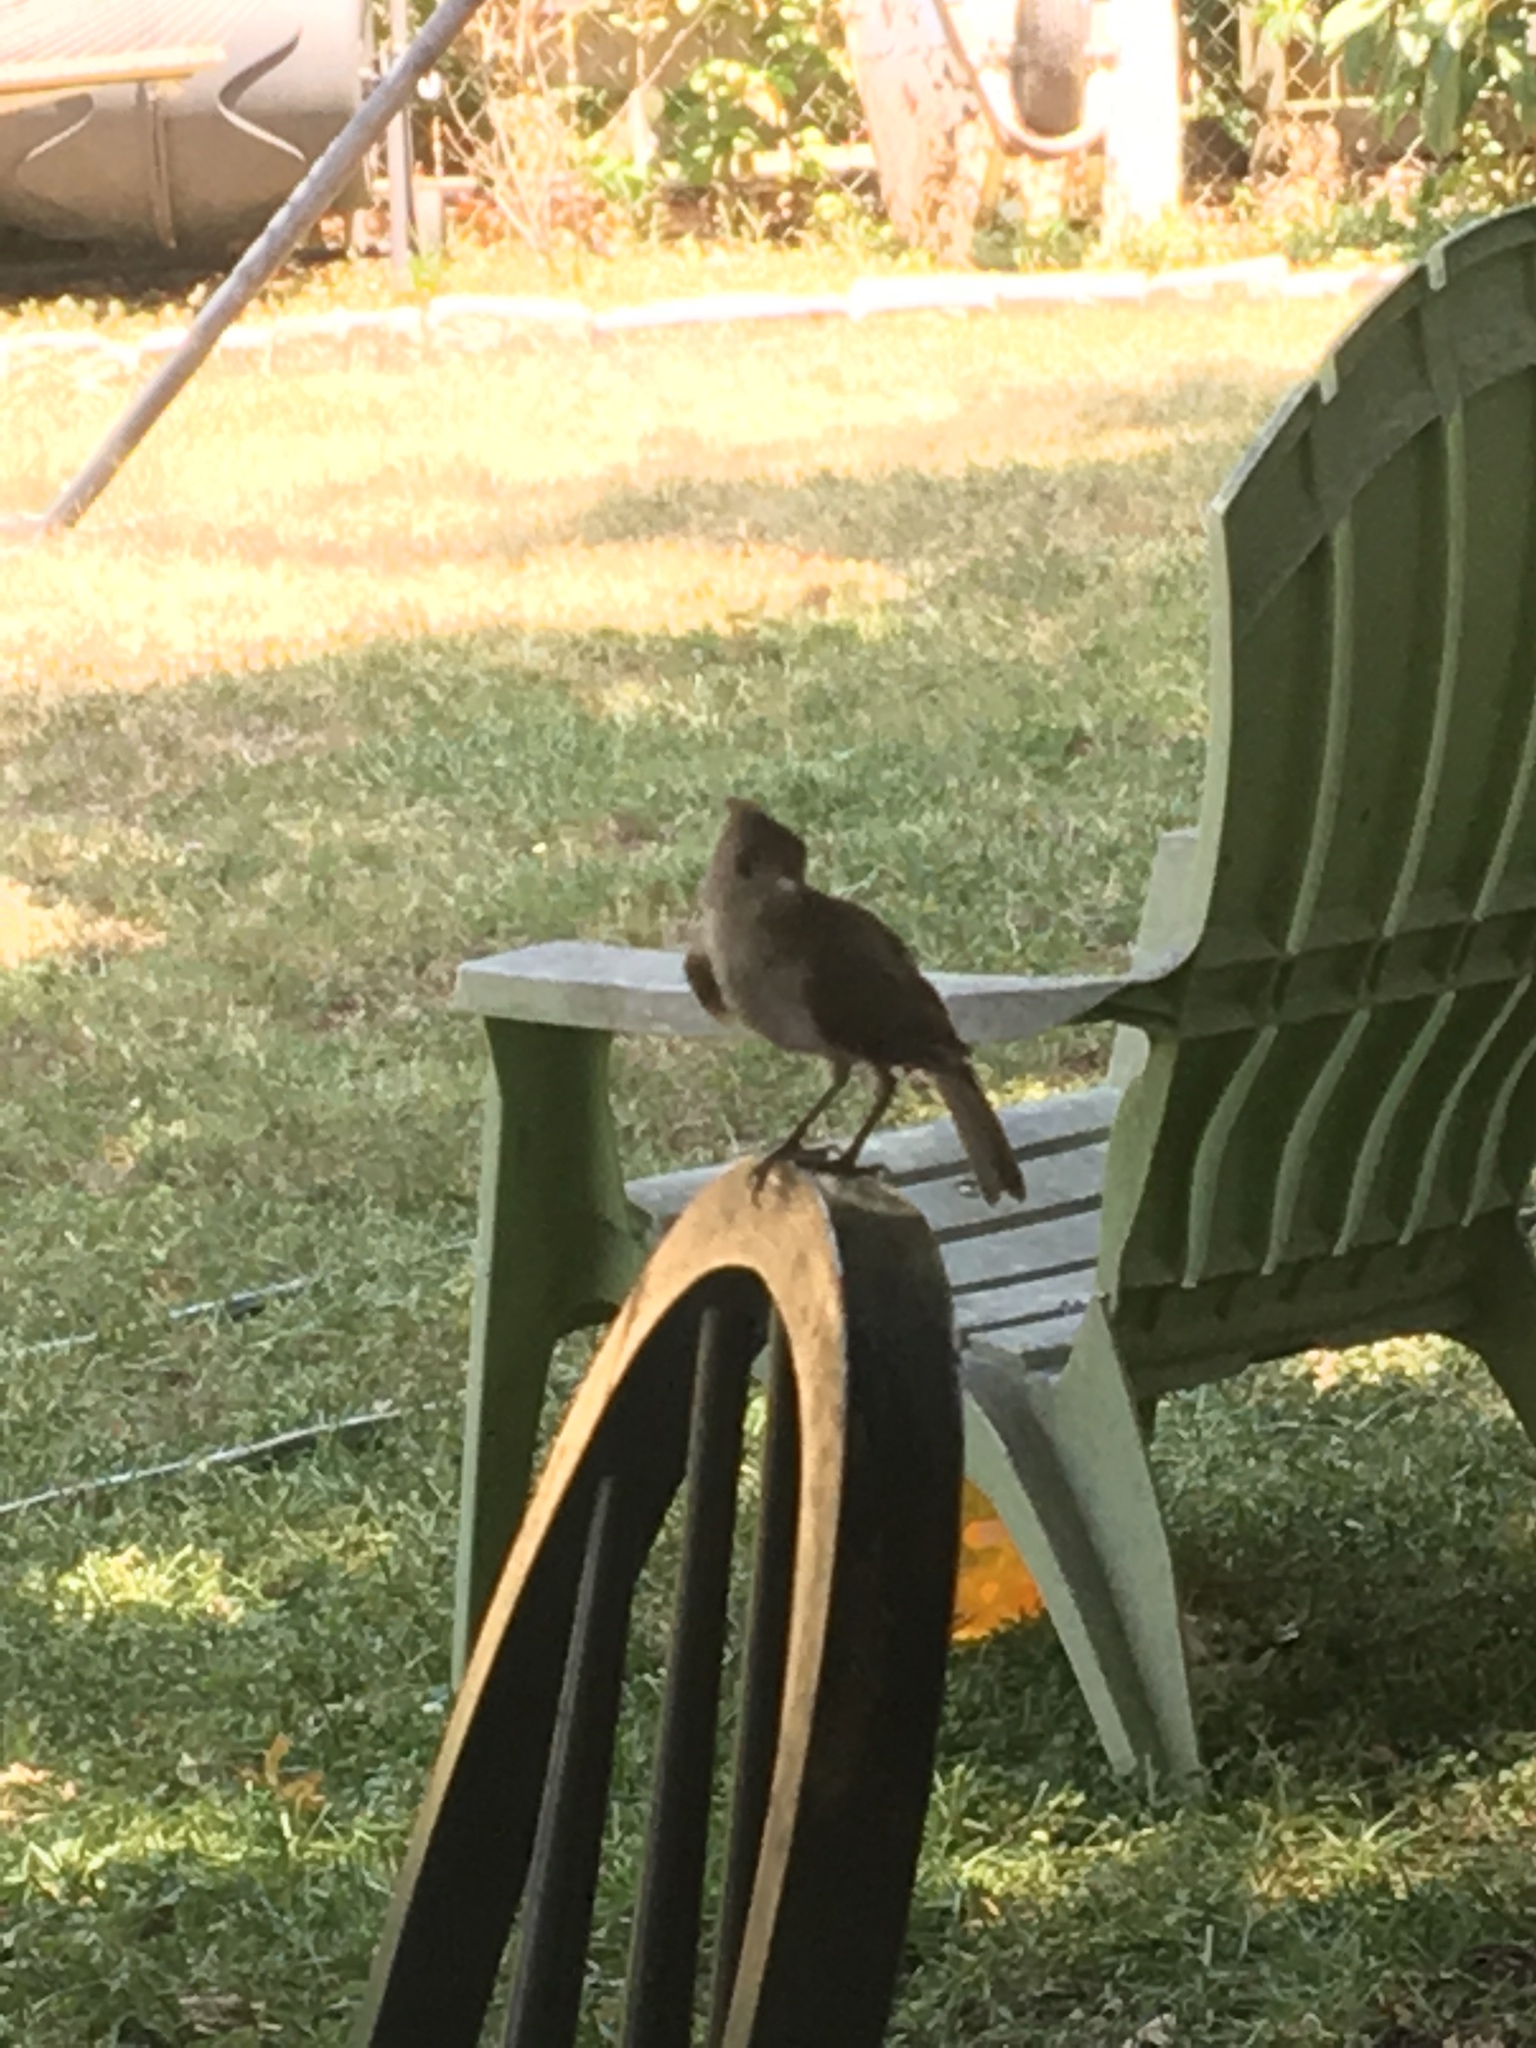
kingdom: Animalia
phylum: Chordata
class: Aves
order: Passeriformes
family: Paridae
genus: Baeolophus
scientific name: Baeolophus atricristatus
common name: Black-crested titmouse
